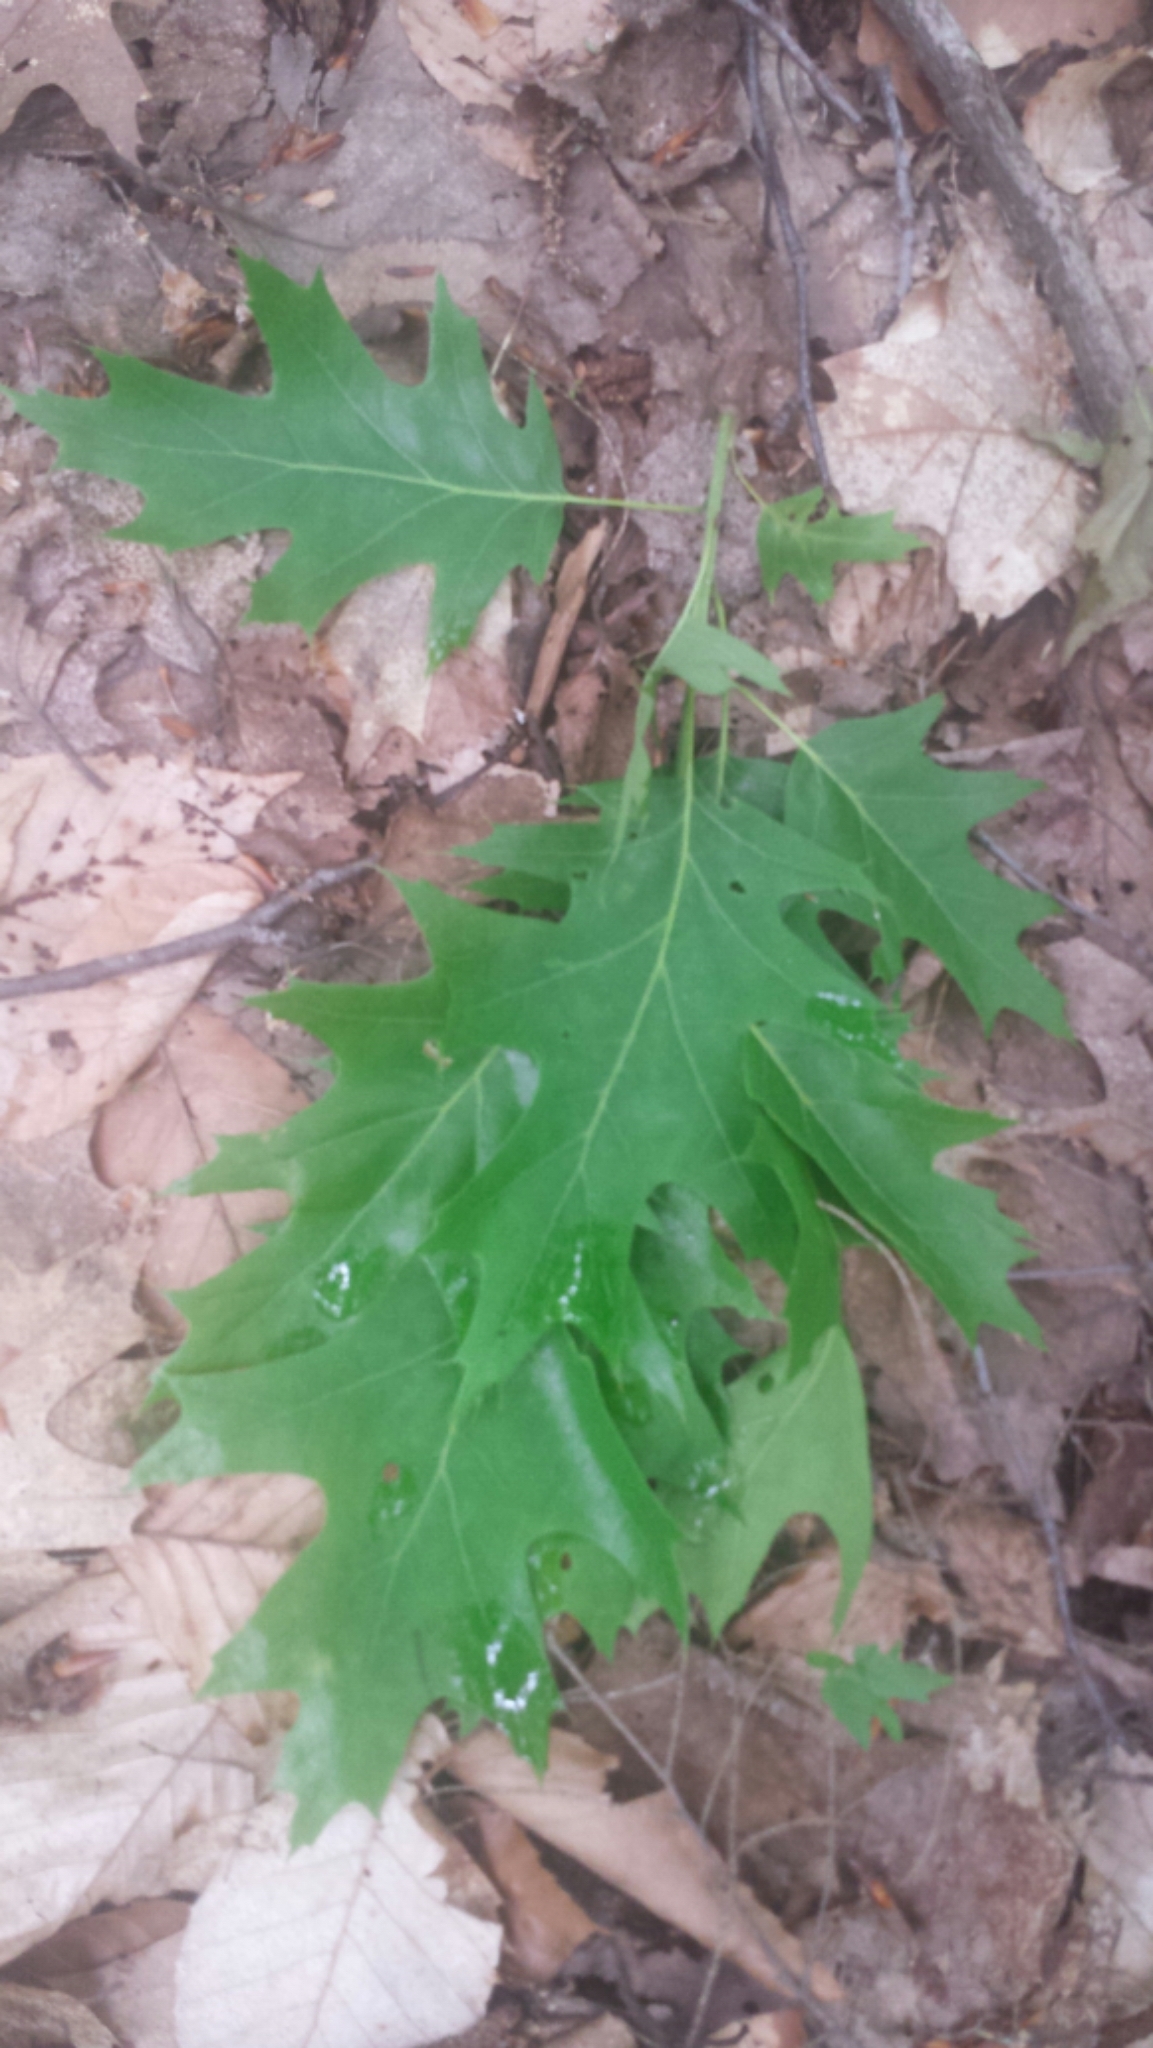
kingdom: Plantae
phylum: Tracheophyta
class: Magnoliopsida
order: Fagales
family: Fagaceae
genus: Quercus
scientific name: Quercus rubra
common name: Red oak
